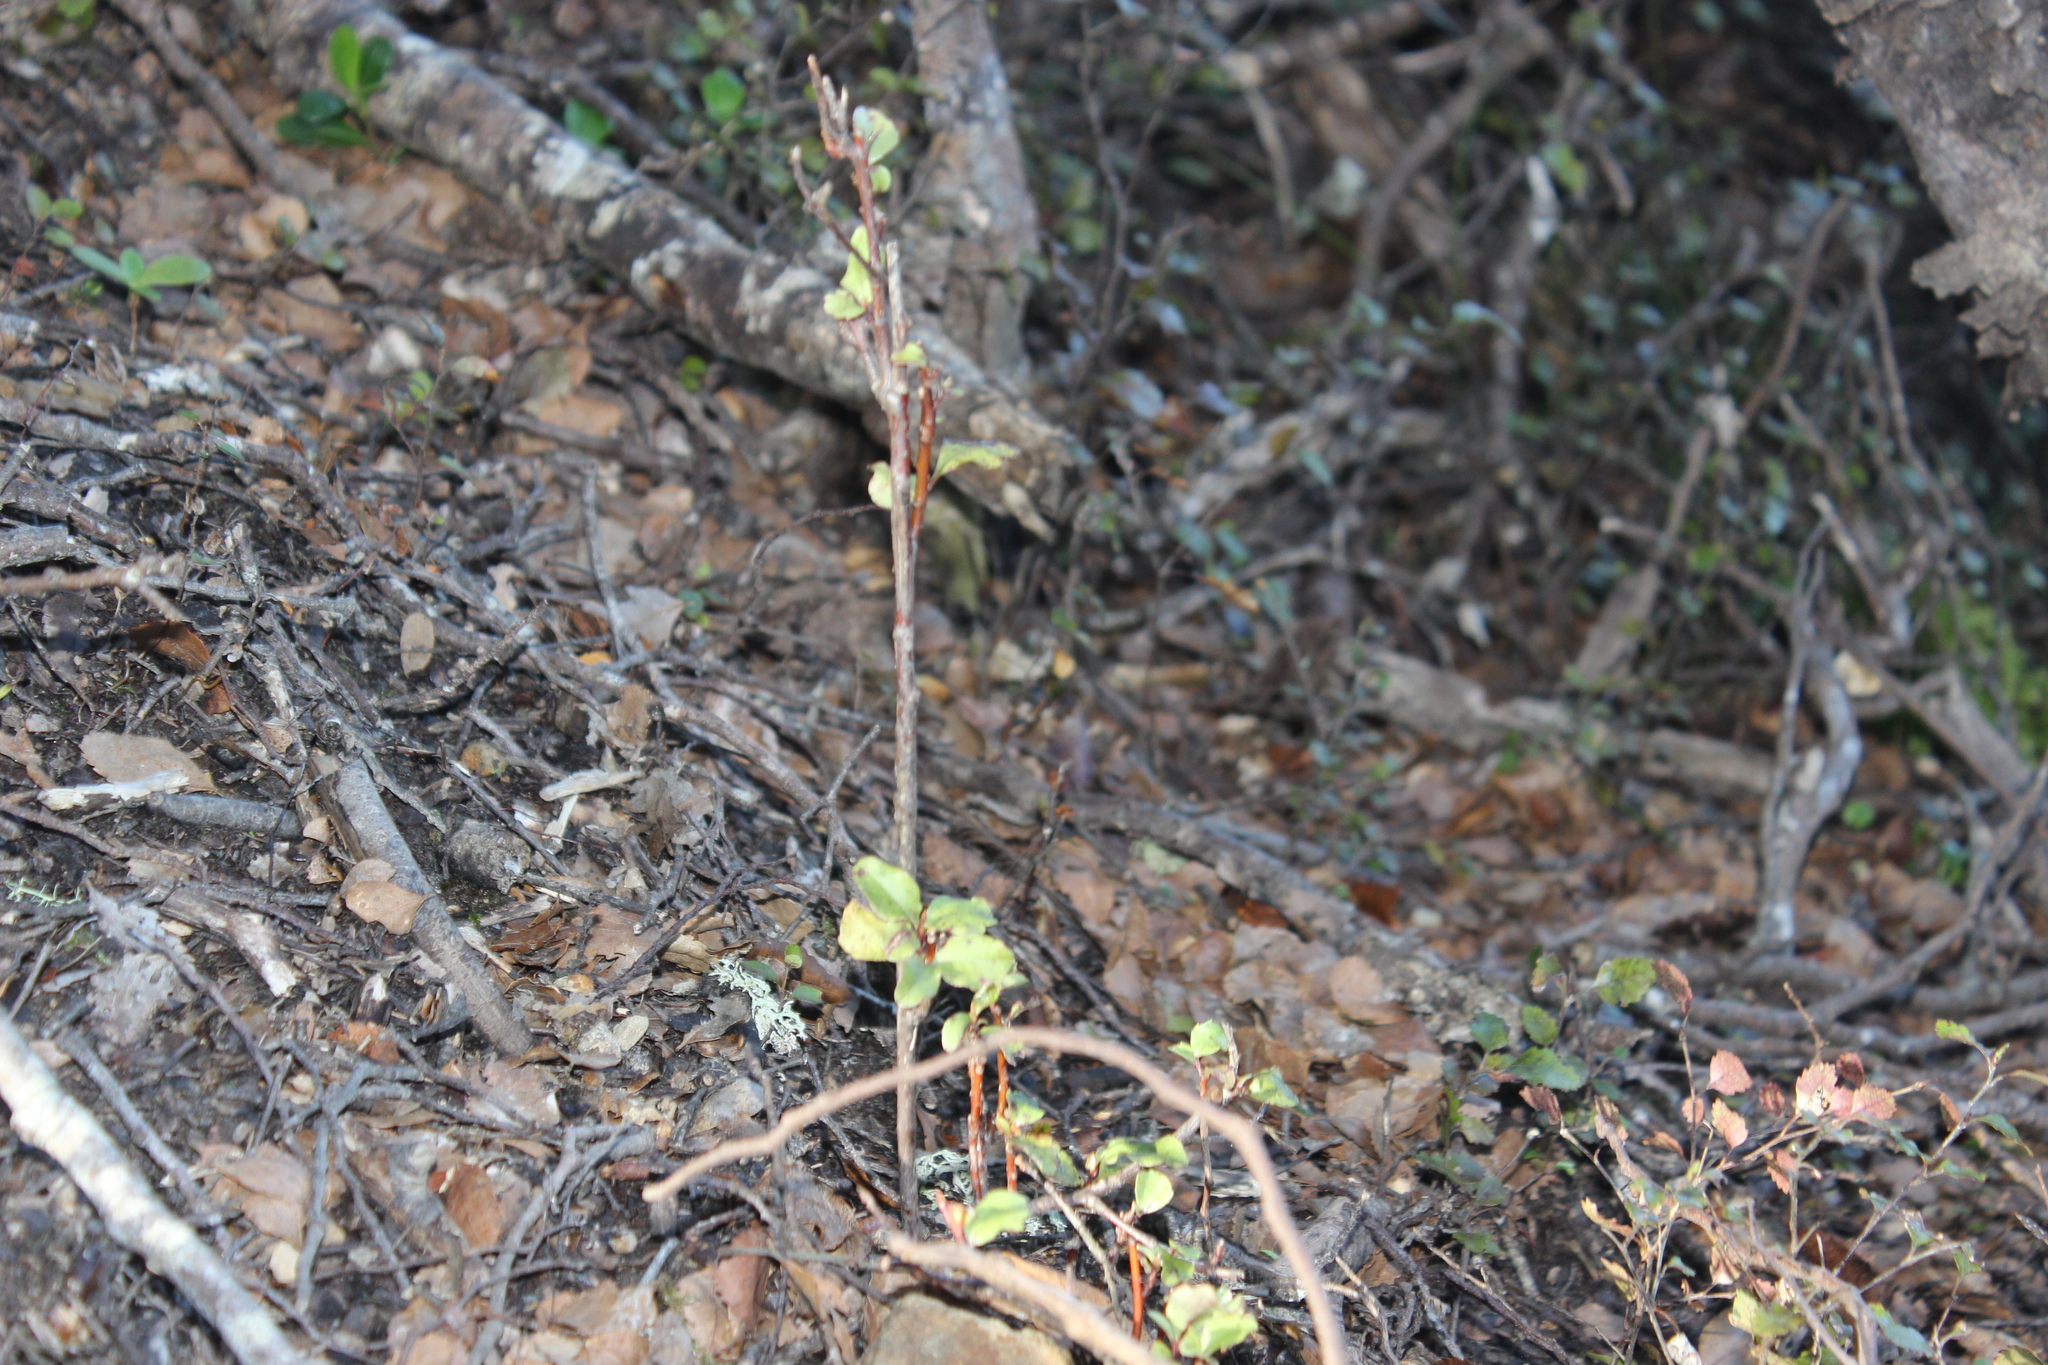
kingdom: Plantae
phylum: Tracheophyta
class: Magnoliopsida
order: Ericales
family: Primulaceae
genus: Myrsine
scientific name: Myrsine australis
